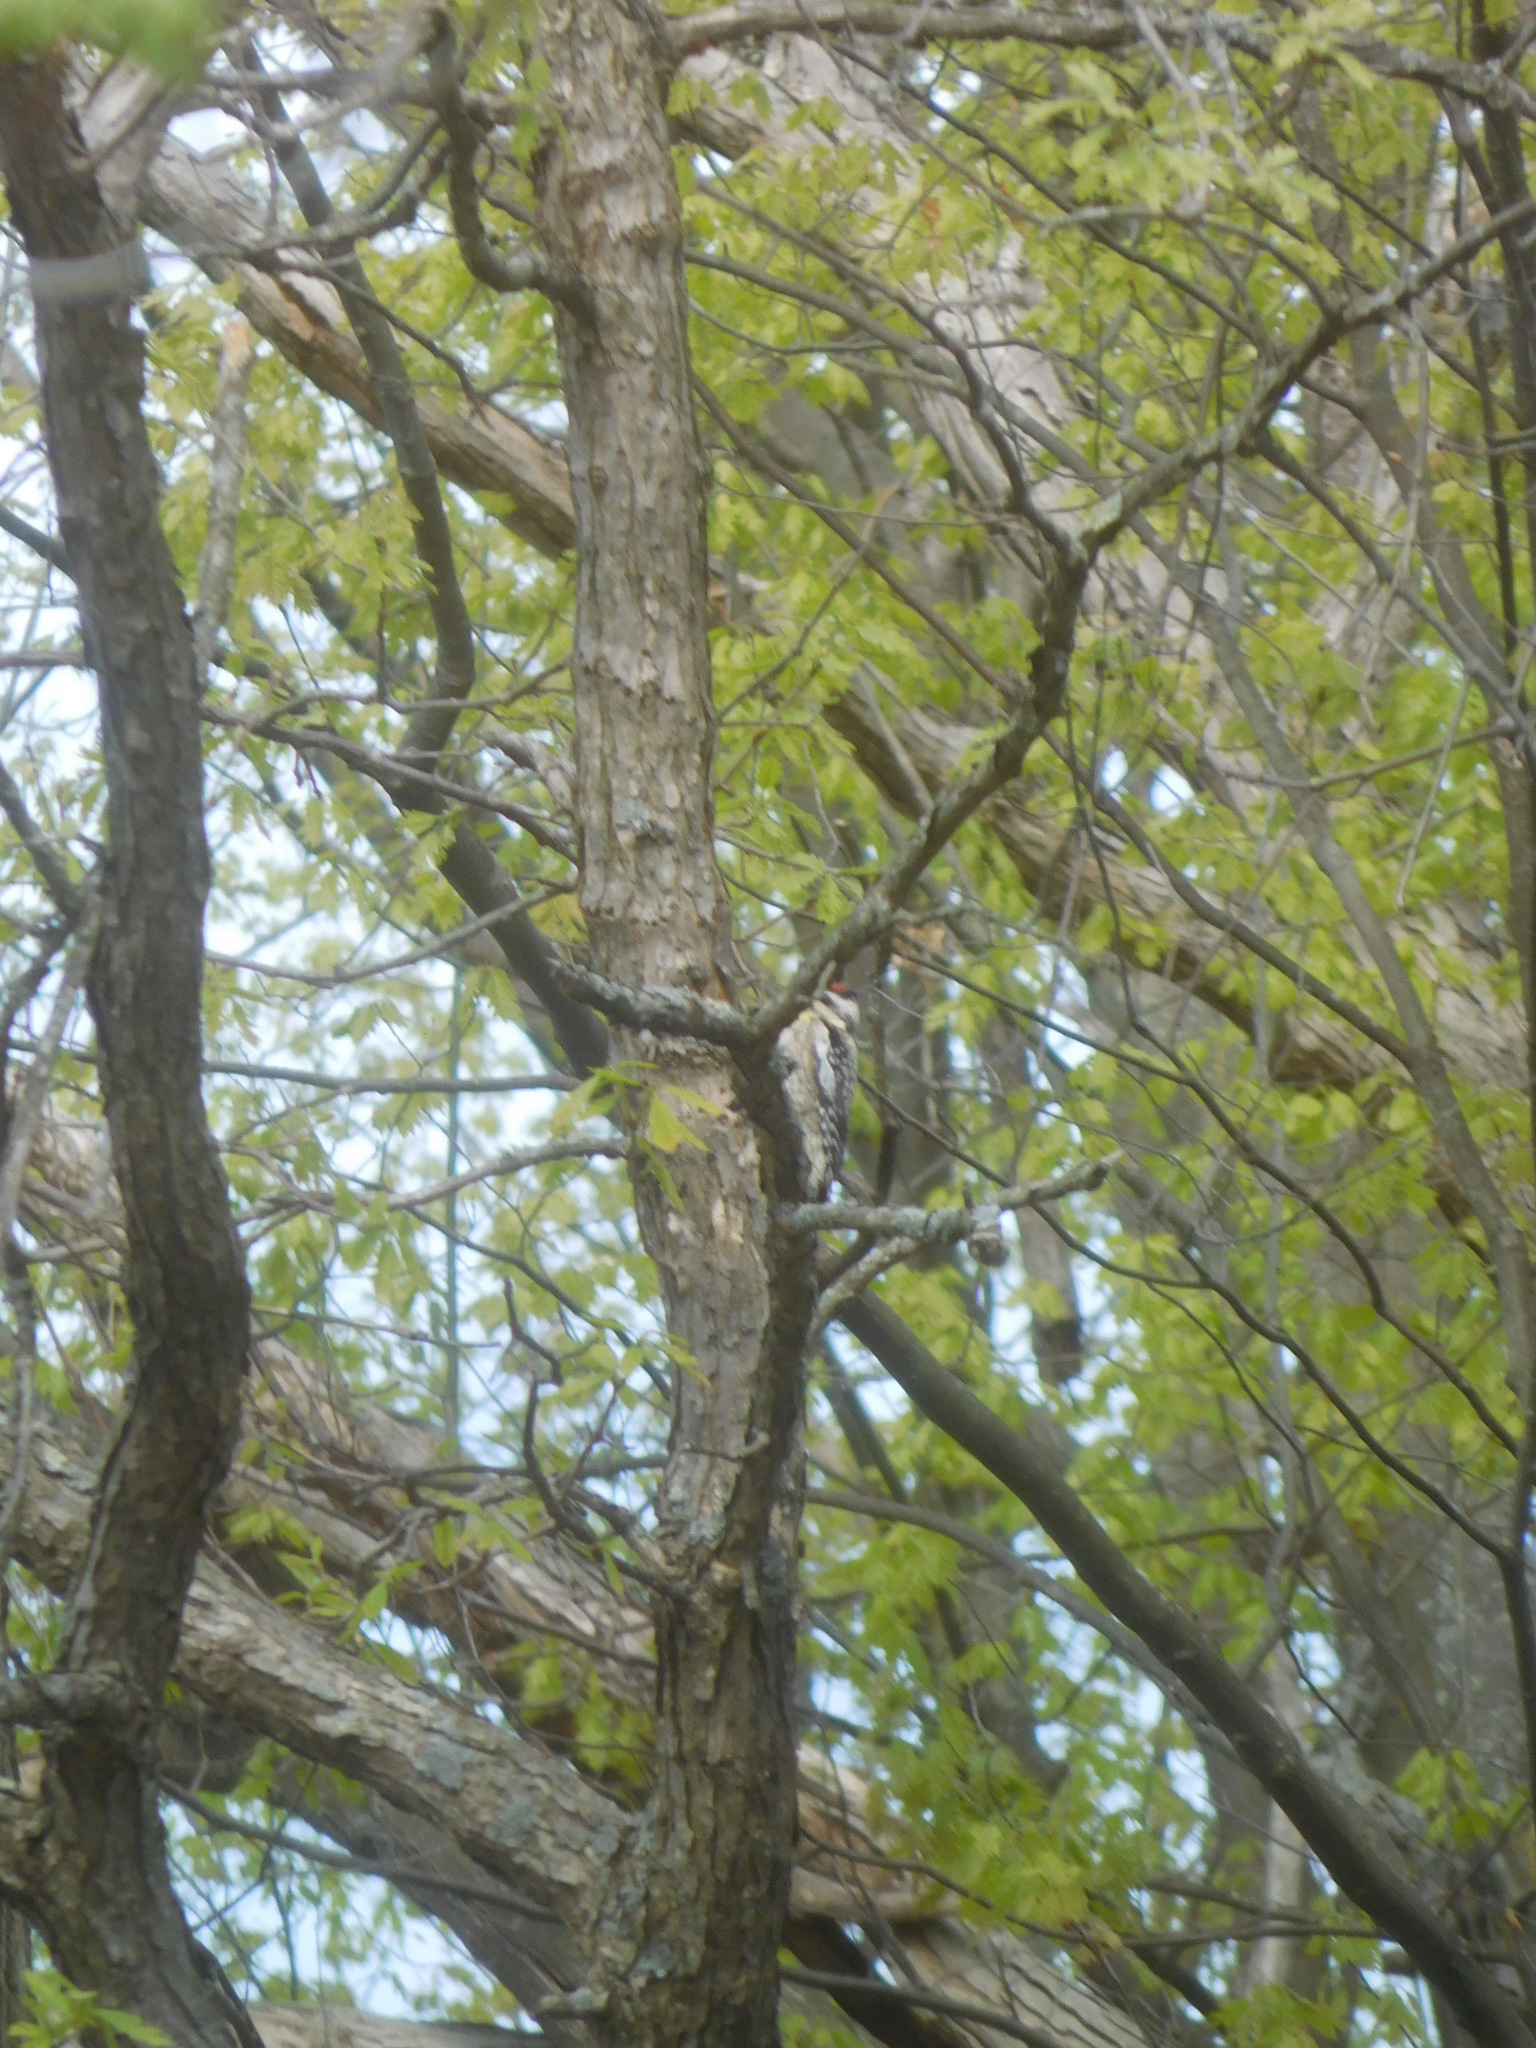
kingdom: Animalia
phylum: Chordata
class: Aves
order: Piciformes
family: Picidae
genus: Sphyrapicus
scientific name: Sphyrapicus varius
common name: Yellow-bellied sapsucker
